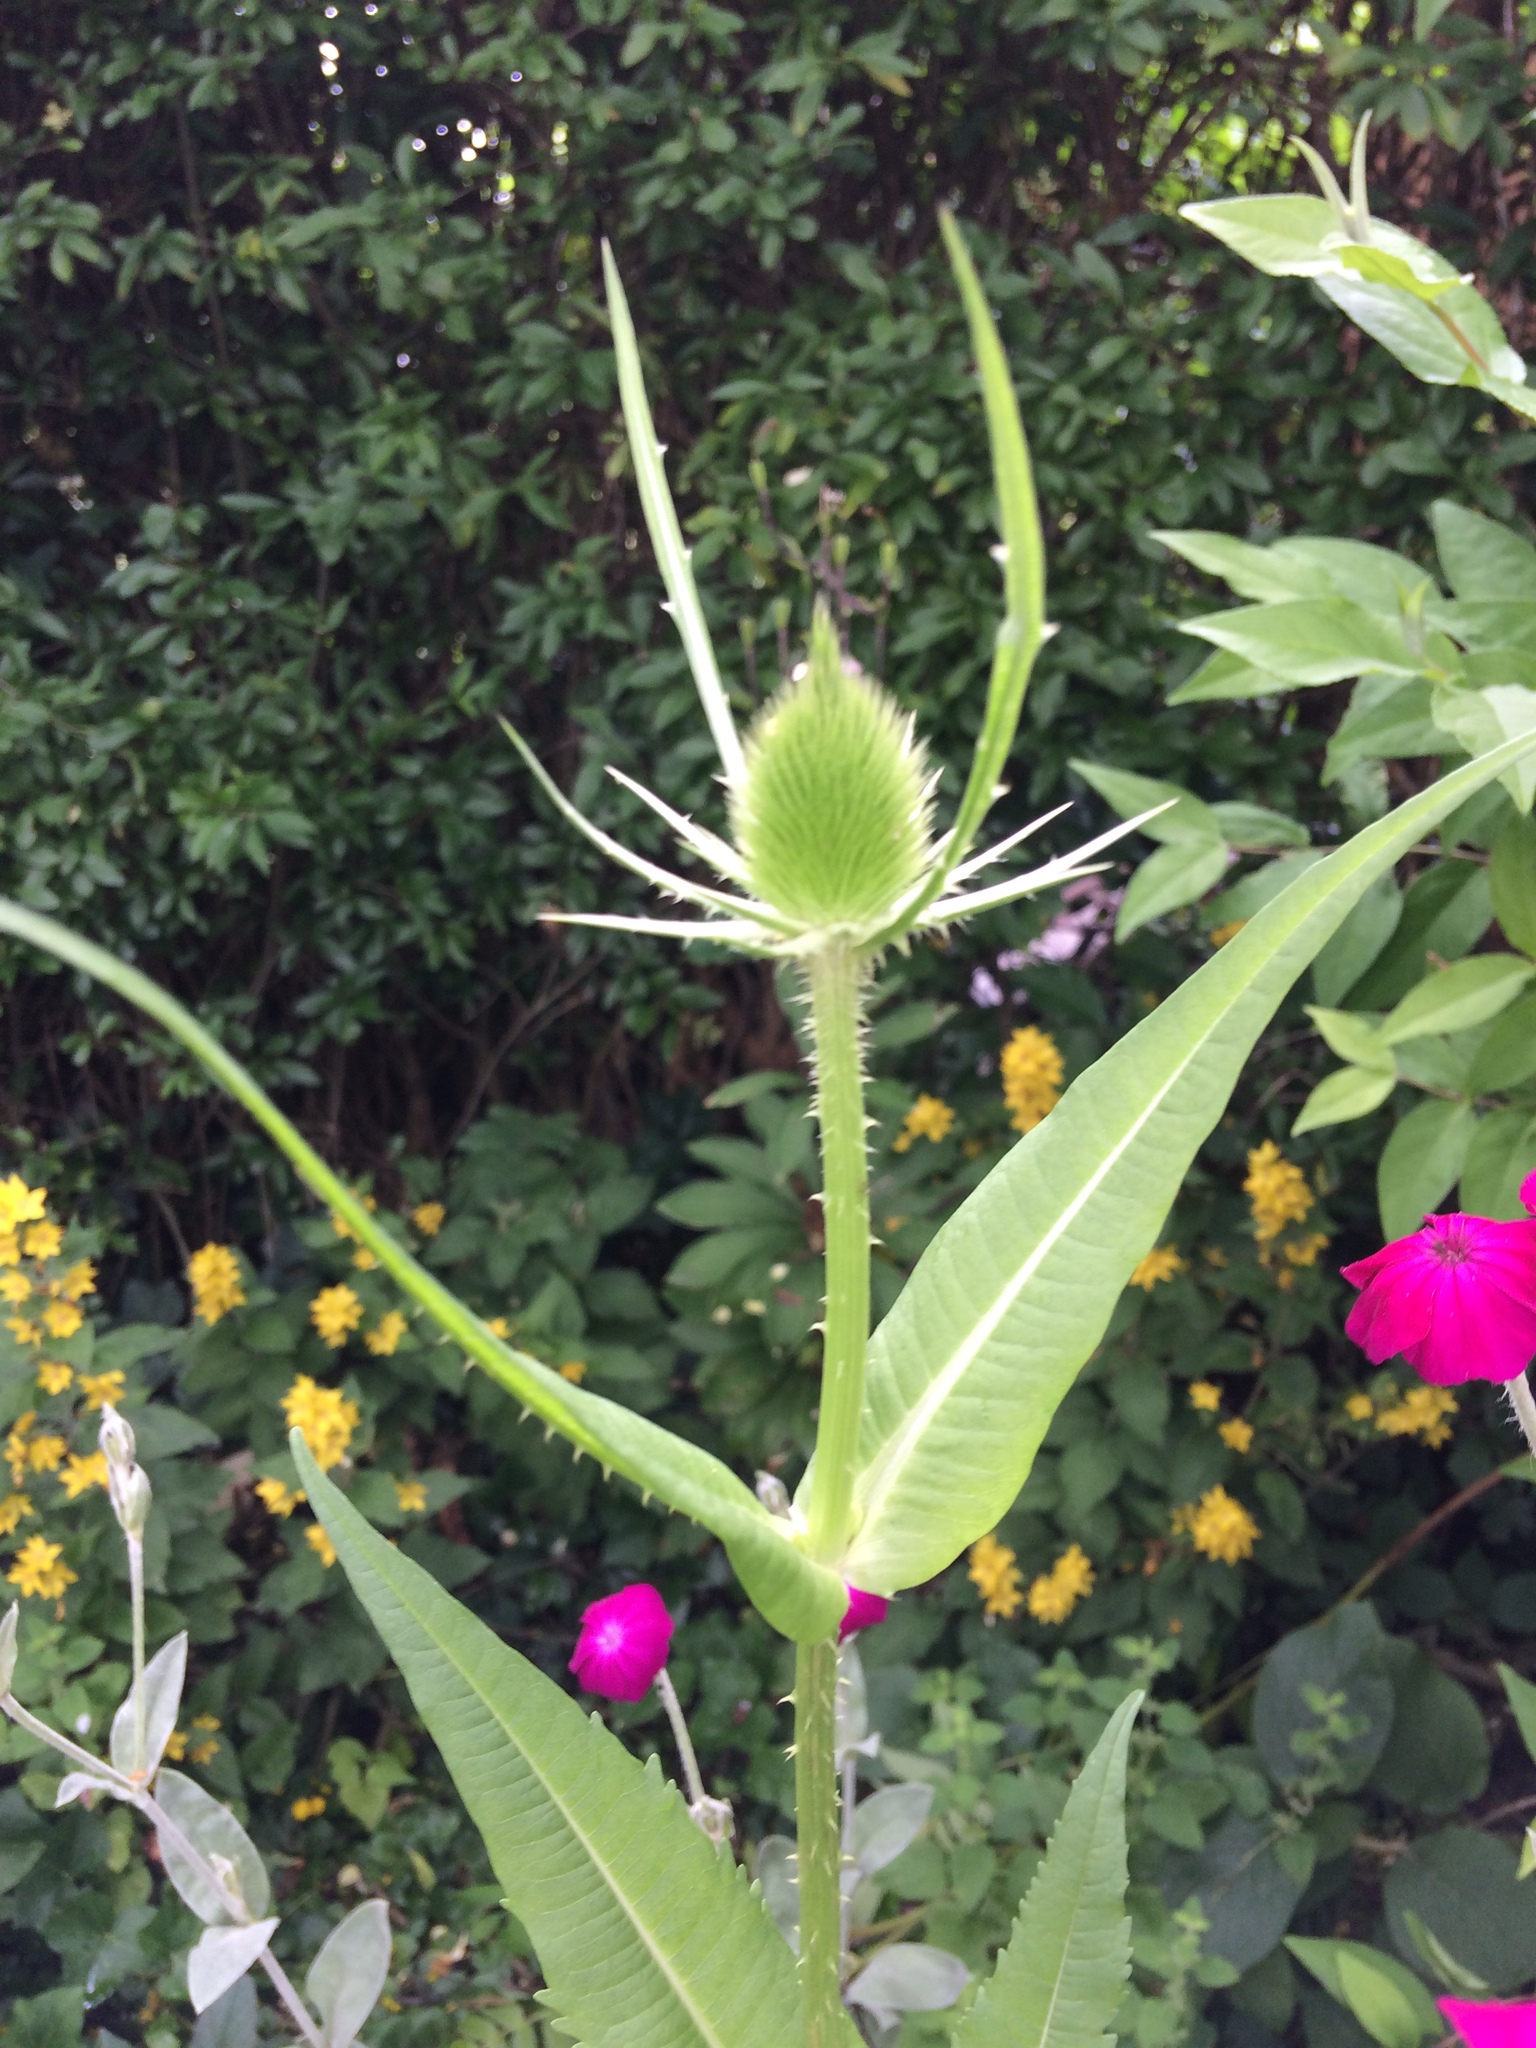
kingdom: Plantae
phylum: Tracheophyta
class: Magnoliopsida
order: Dipsacales
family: Caprifoliaceae
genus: Dipsacus
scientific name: Dipsacus fullonum
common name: Teasel
